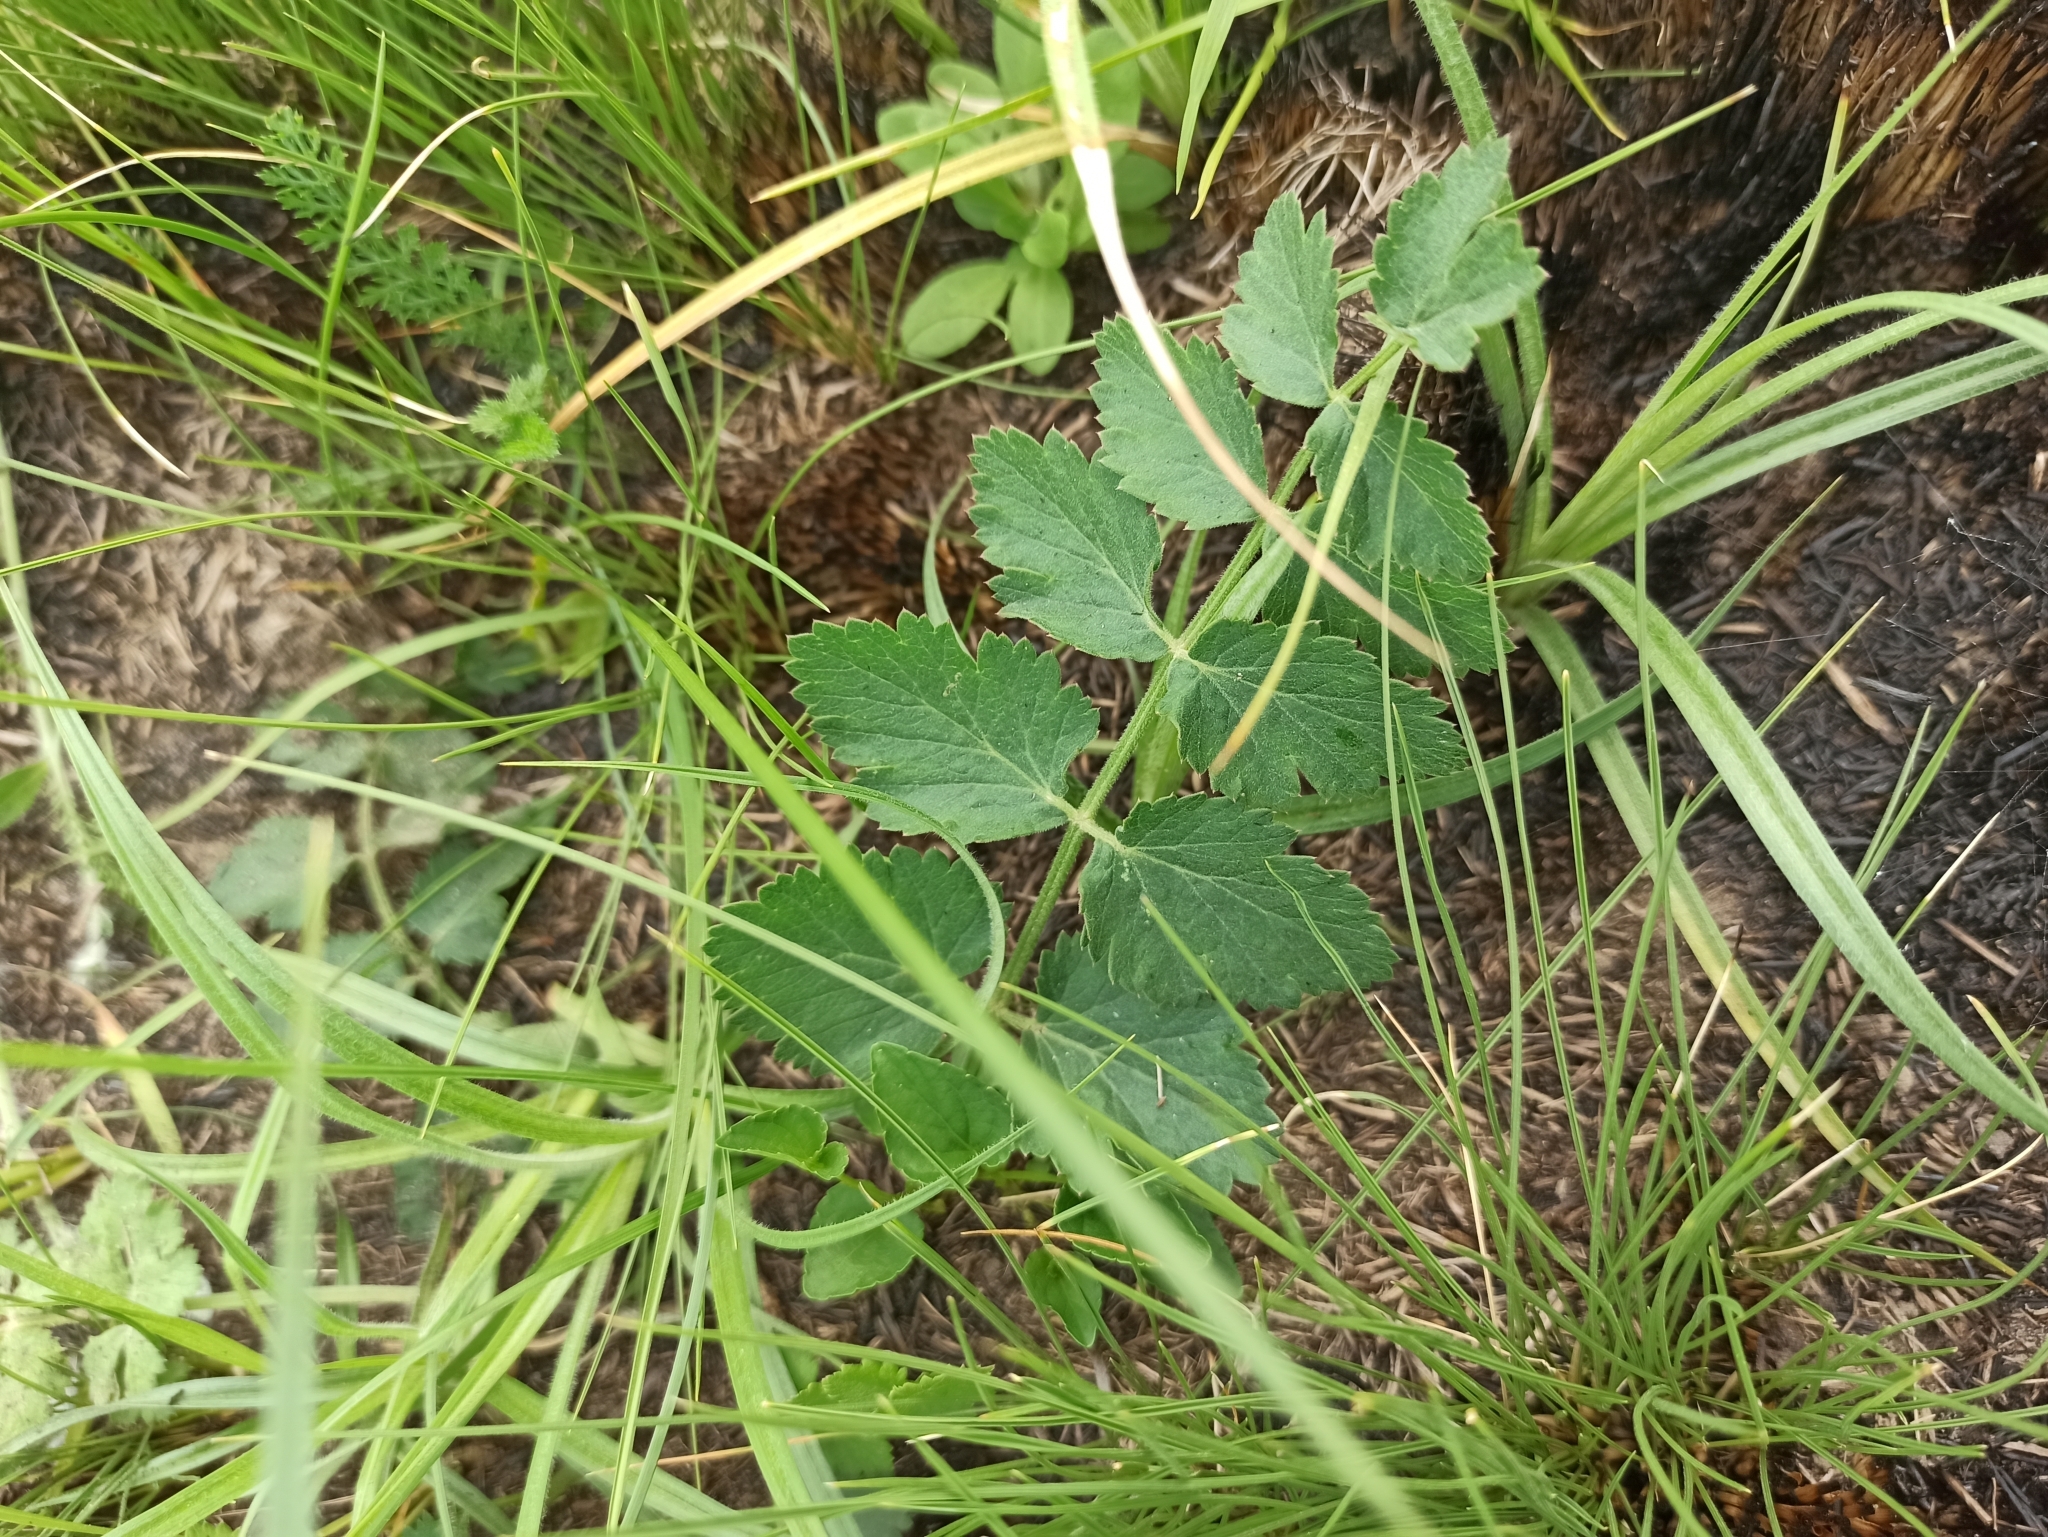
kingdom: Plantae
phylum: Tracheophyta
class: Magnoliopsida
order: Apiales
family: Apiaceae
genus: Pimpinella
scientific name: Pimpinella saxifraga
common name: Burnet-saxifrage
